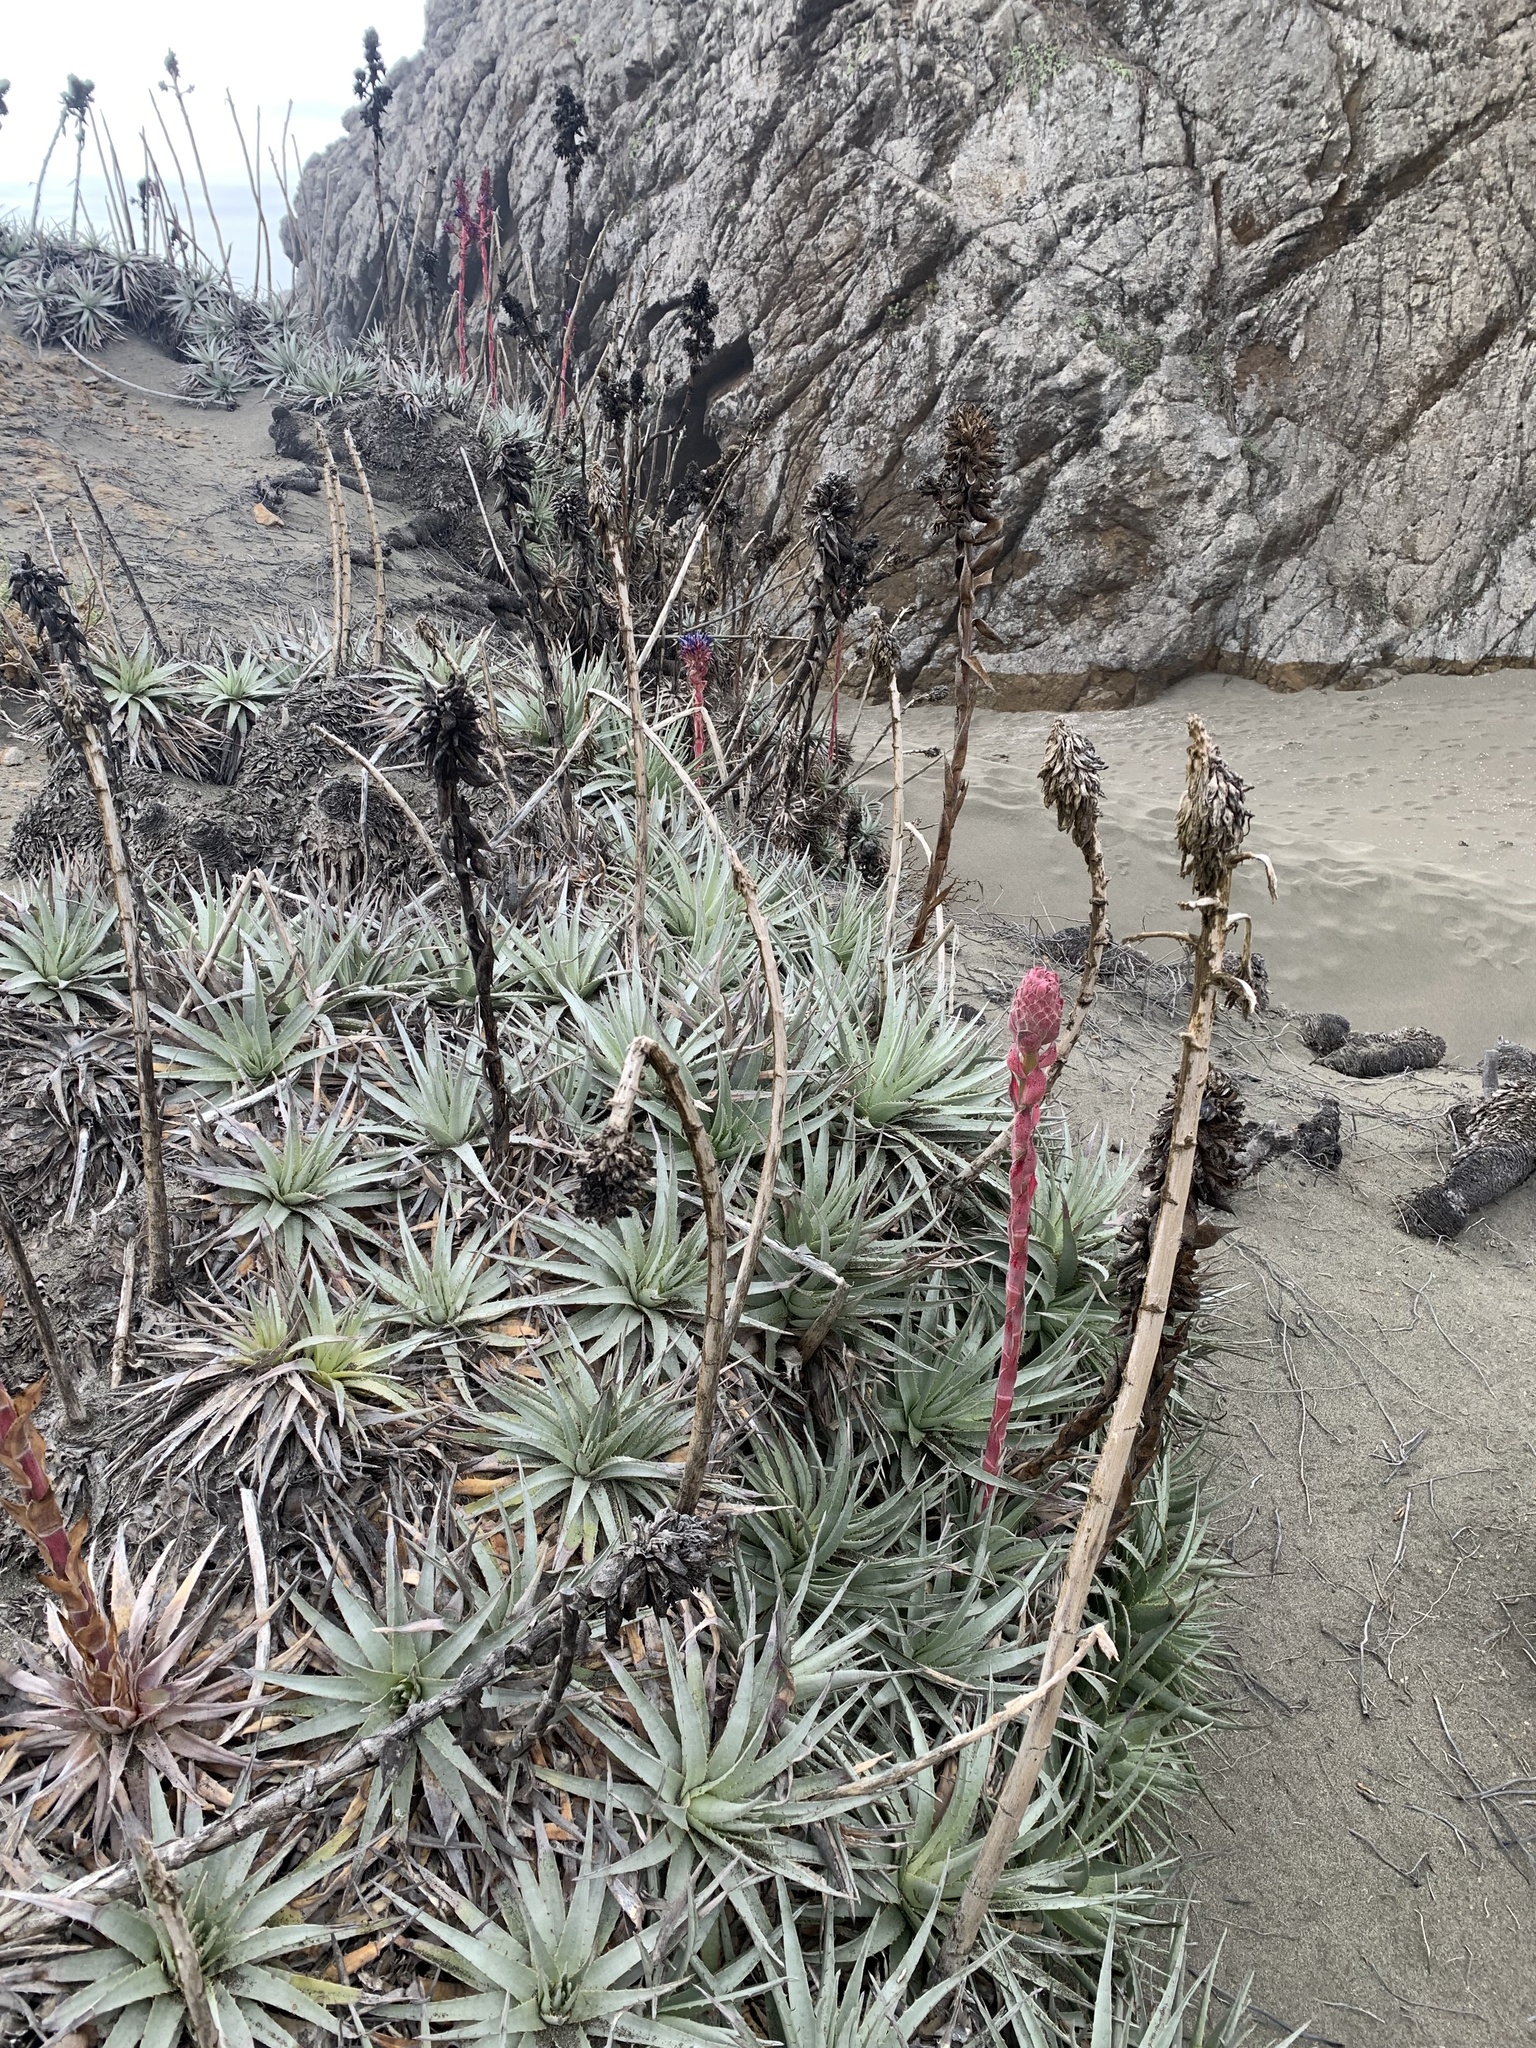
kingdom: Plantae
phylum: Tracheophyta
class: Liliopsida
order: Poales
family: Bromeliaceae
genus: Puya
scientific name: Puya venusta
